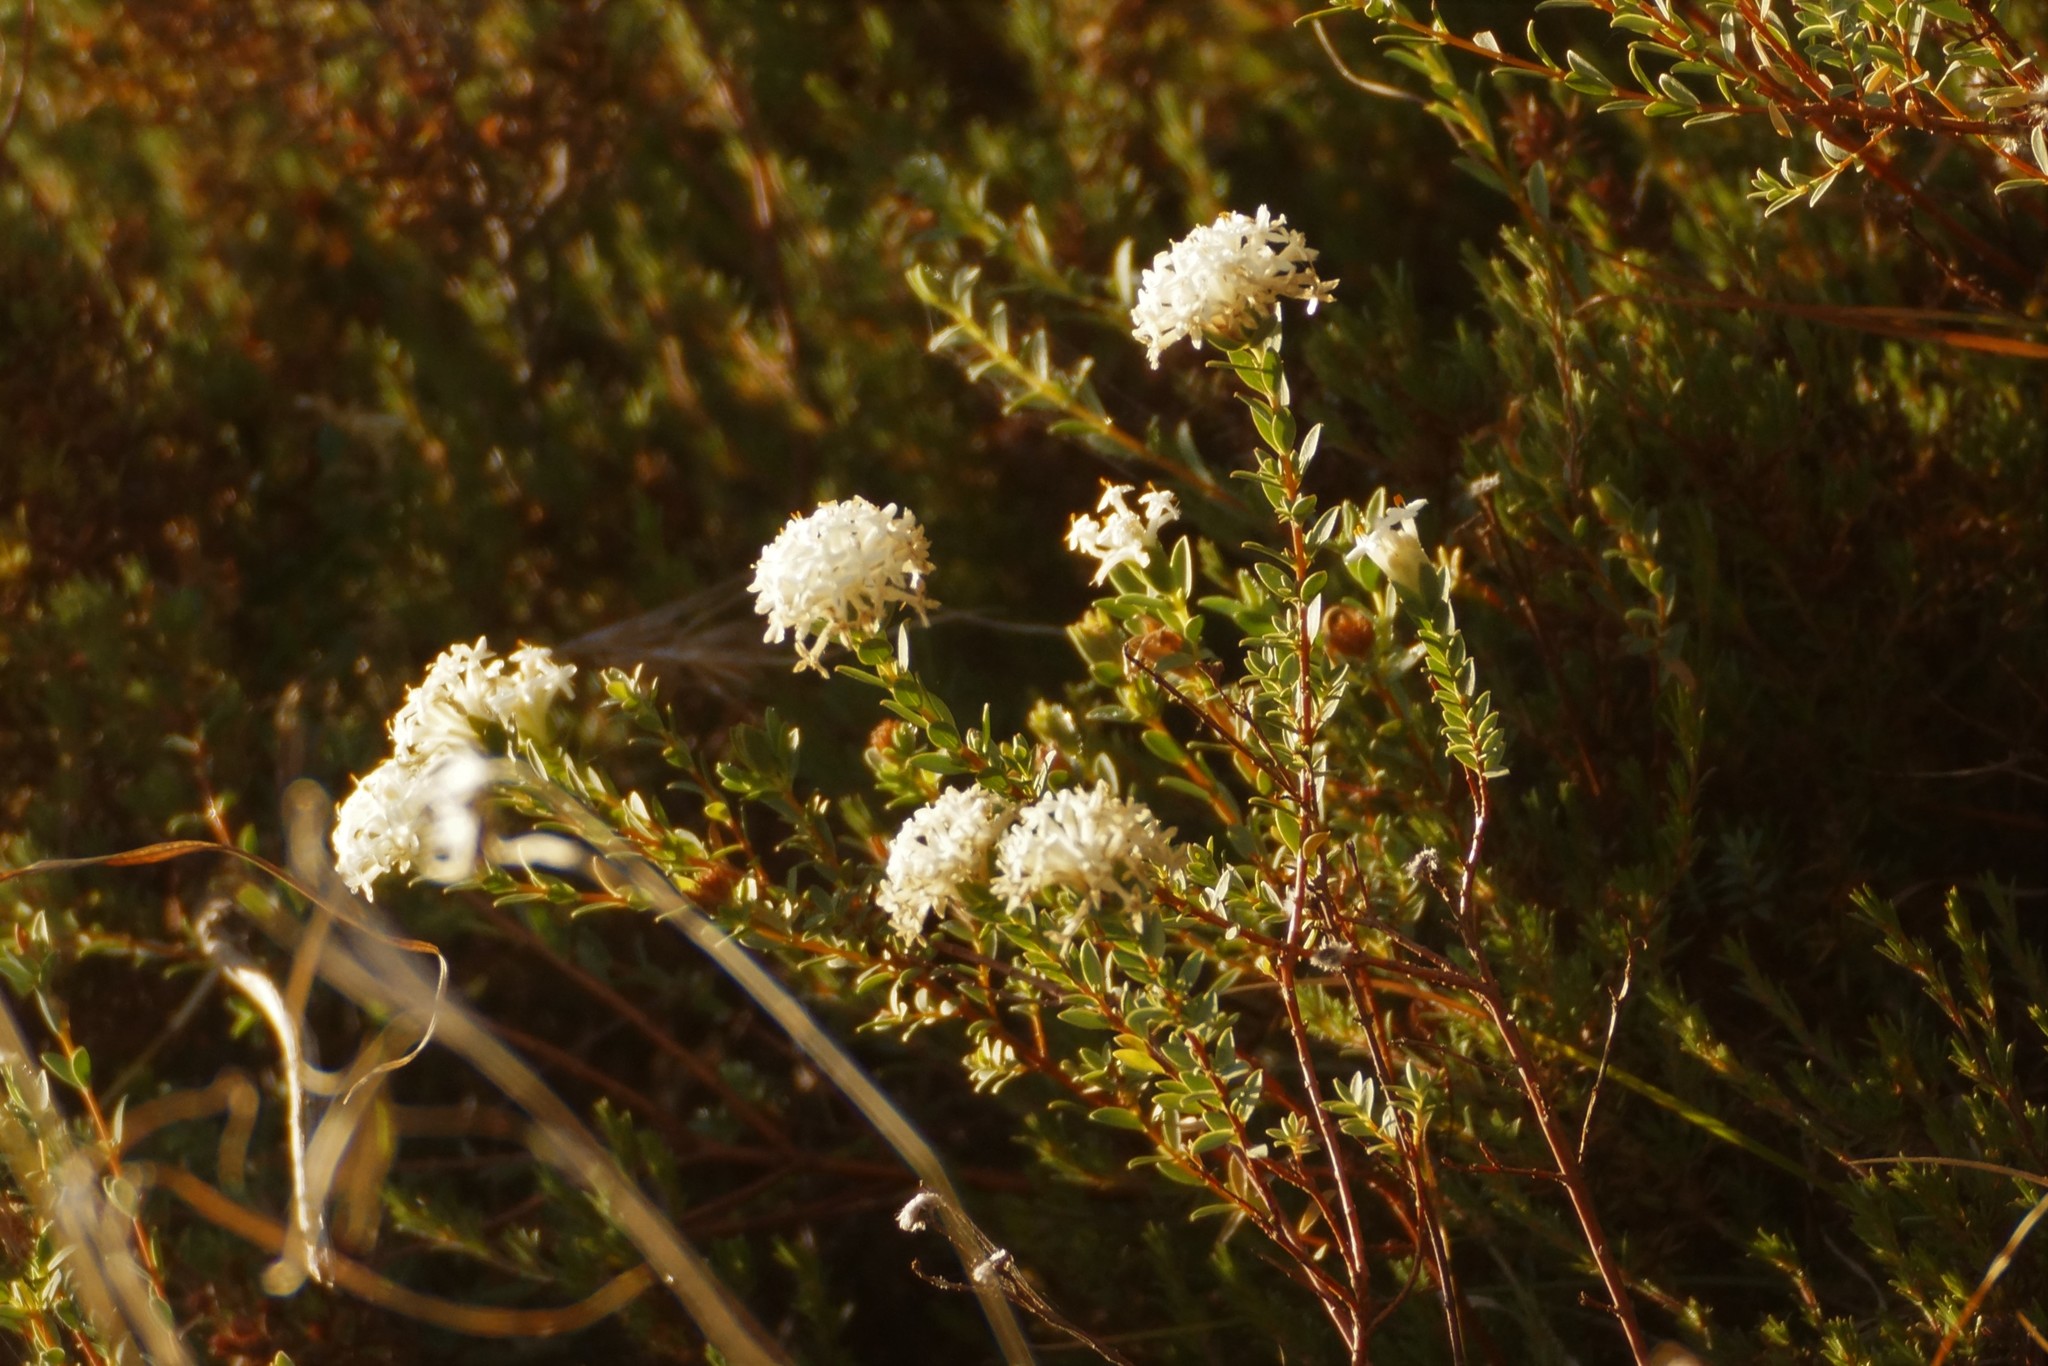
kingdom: Plantae
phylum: Tracheophyta
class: Magnoliopsida
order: Malvales
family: Thymelaeaceae
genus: Pimelea
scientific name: Pimelea glauca
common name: Smooth riceflower
